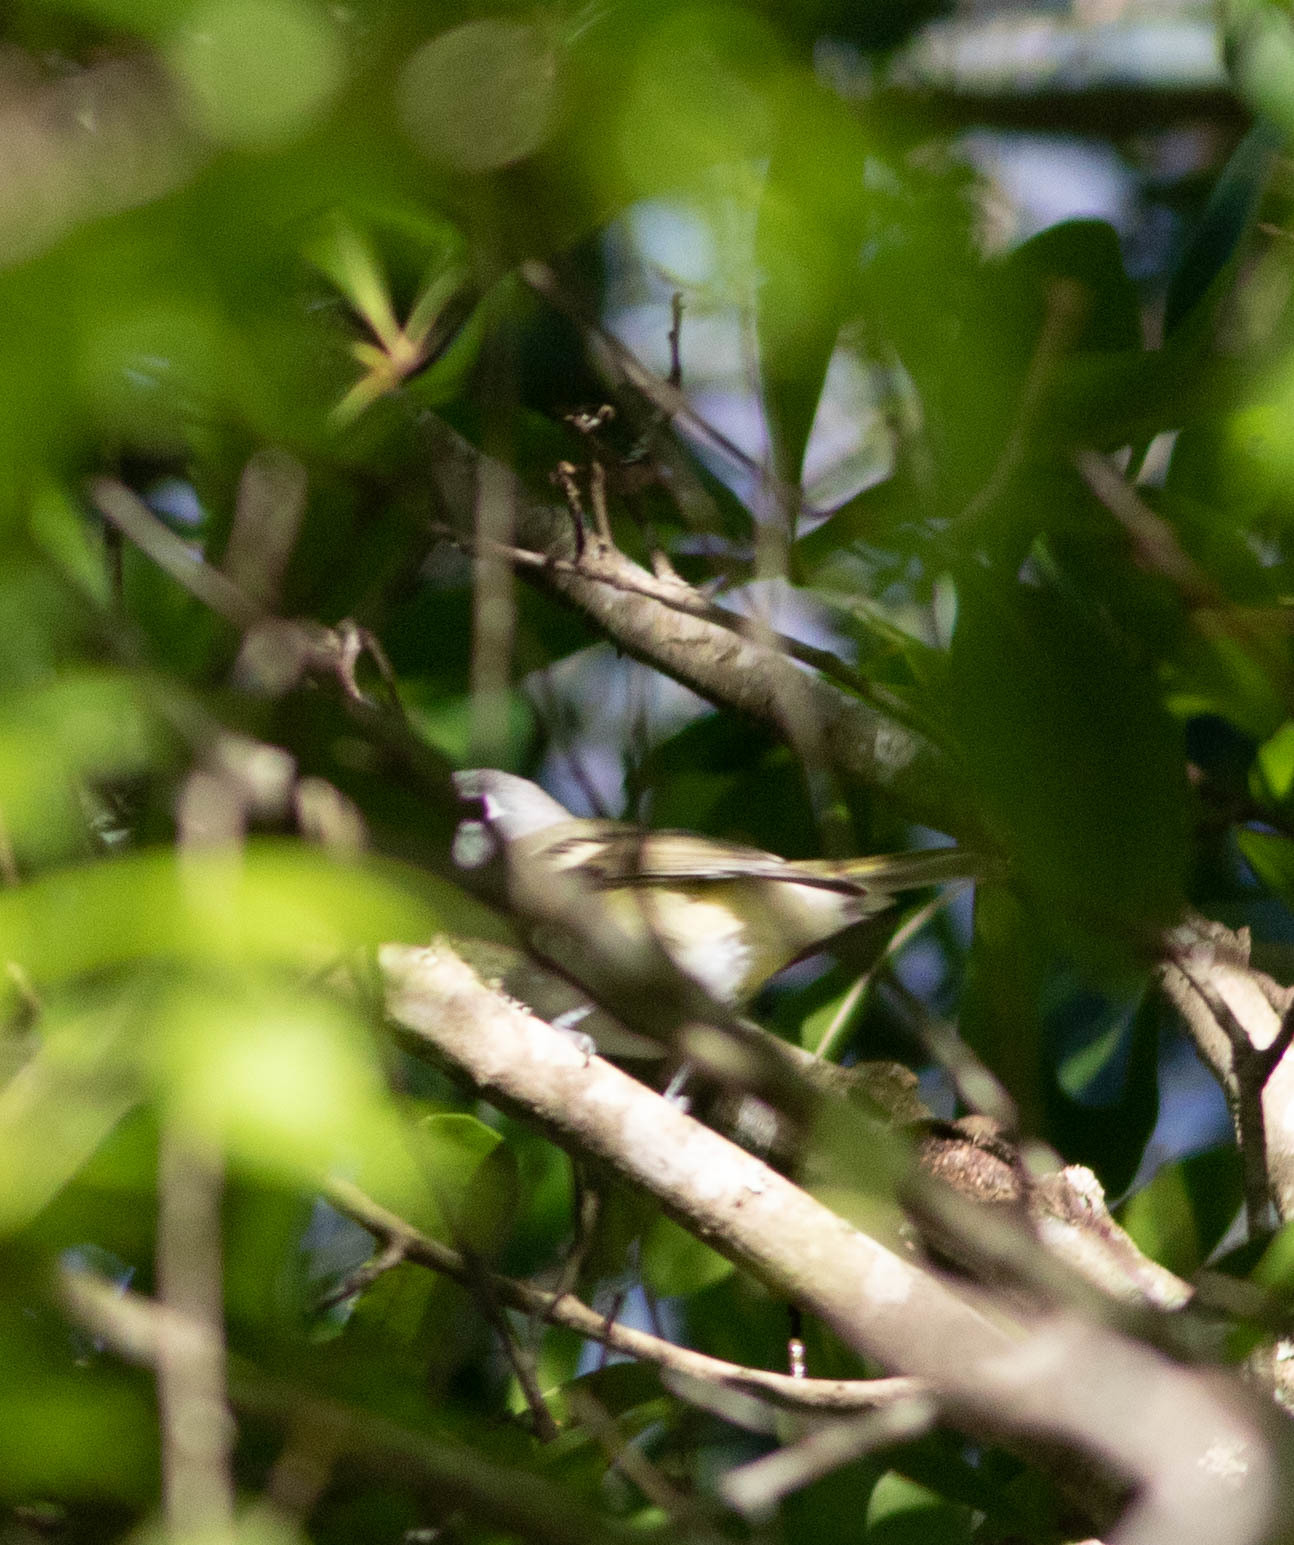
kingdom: Animalia
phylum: Chordata
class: Aves
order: Passeriformes
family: Vireonidae
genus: Vireo
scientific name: Vireo solitarius
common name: Blue-headed vireo
